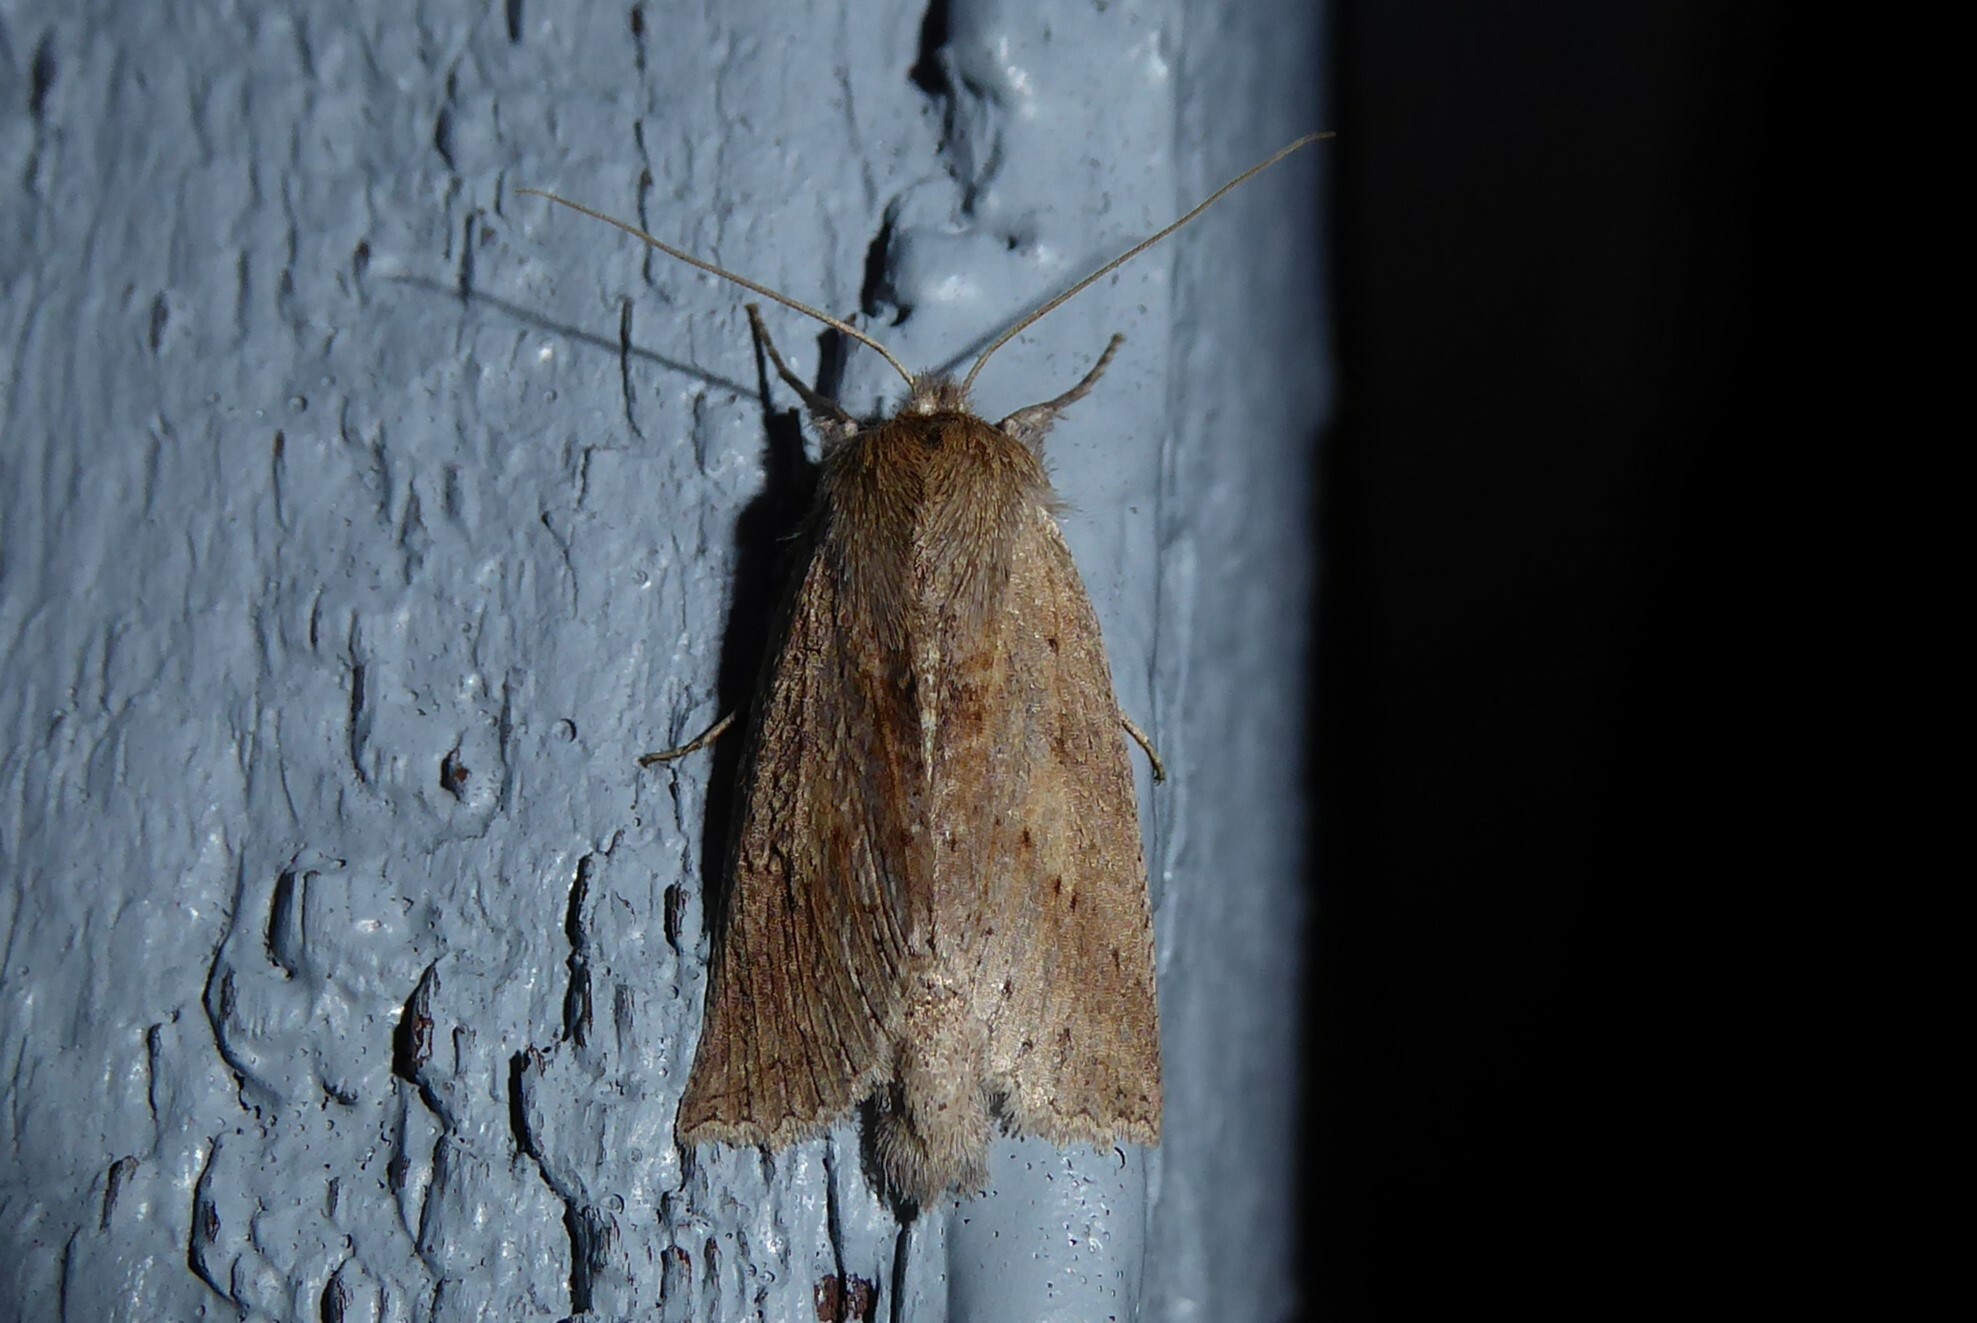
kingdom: Animalia
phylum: Arthropoda
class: Insecta
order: Lepidoptera
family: Geometridae
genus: Declana
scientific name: Declana leptomera
